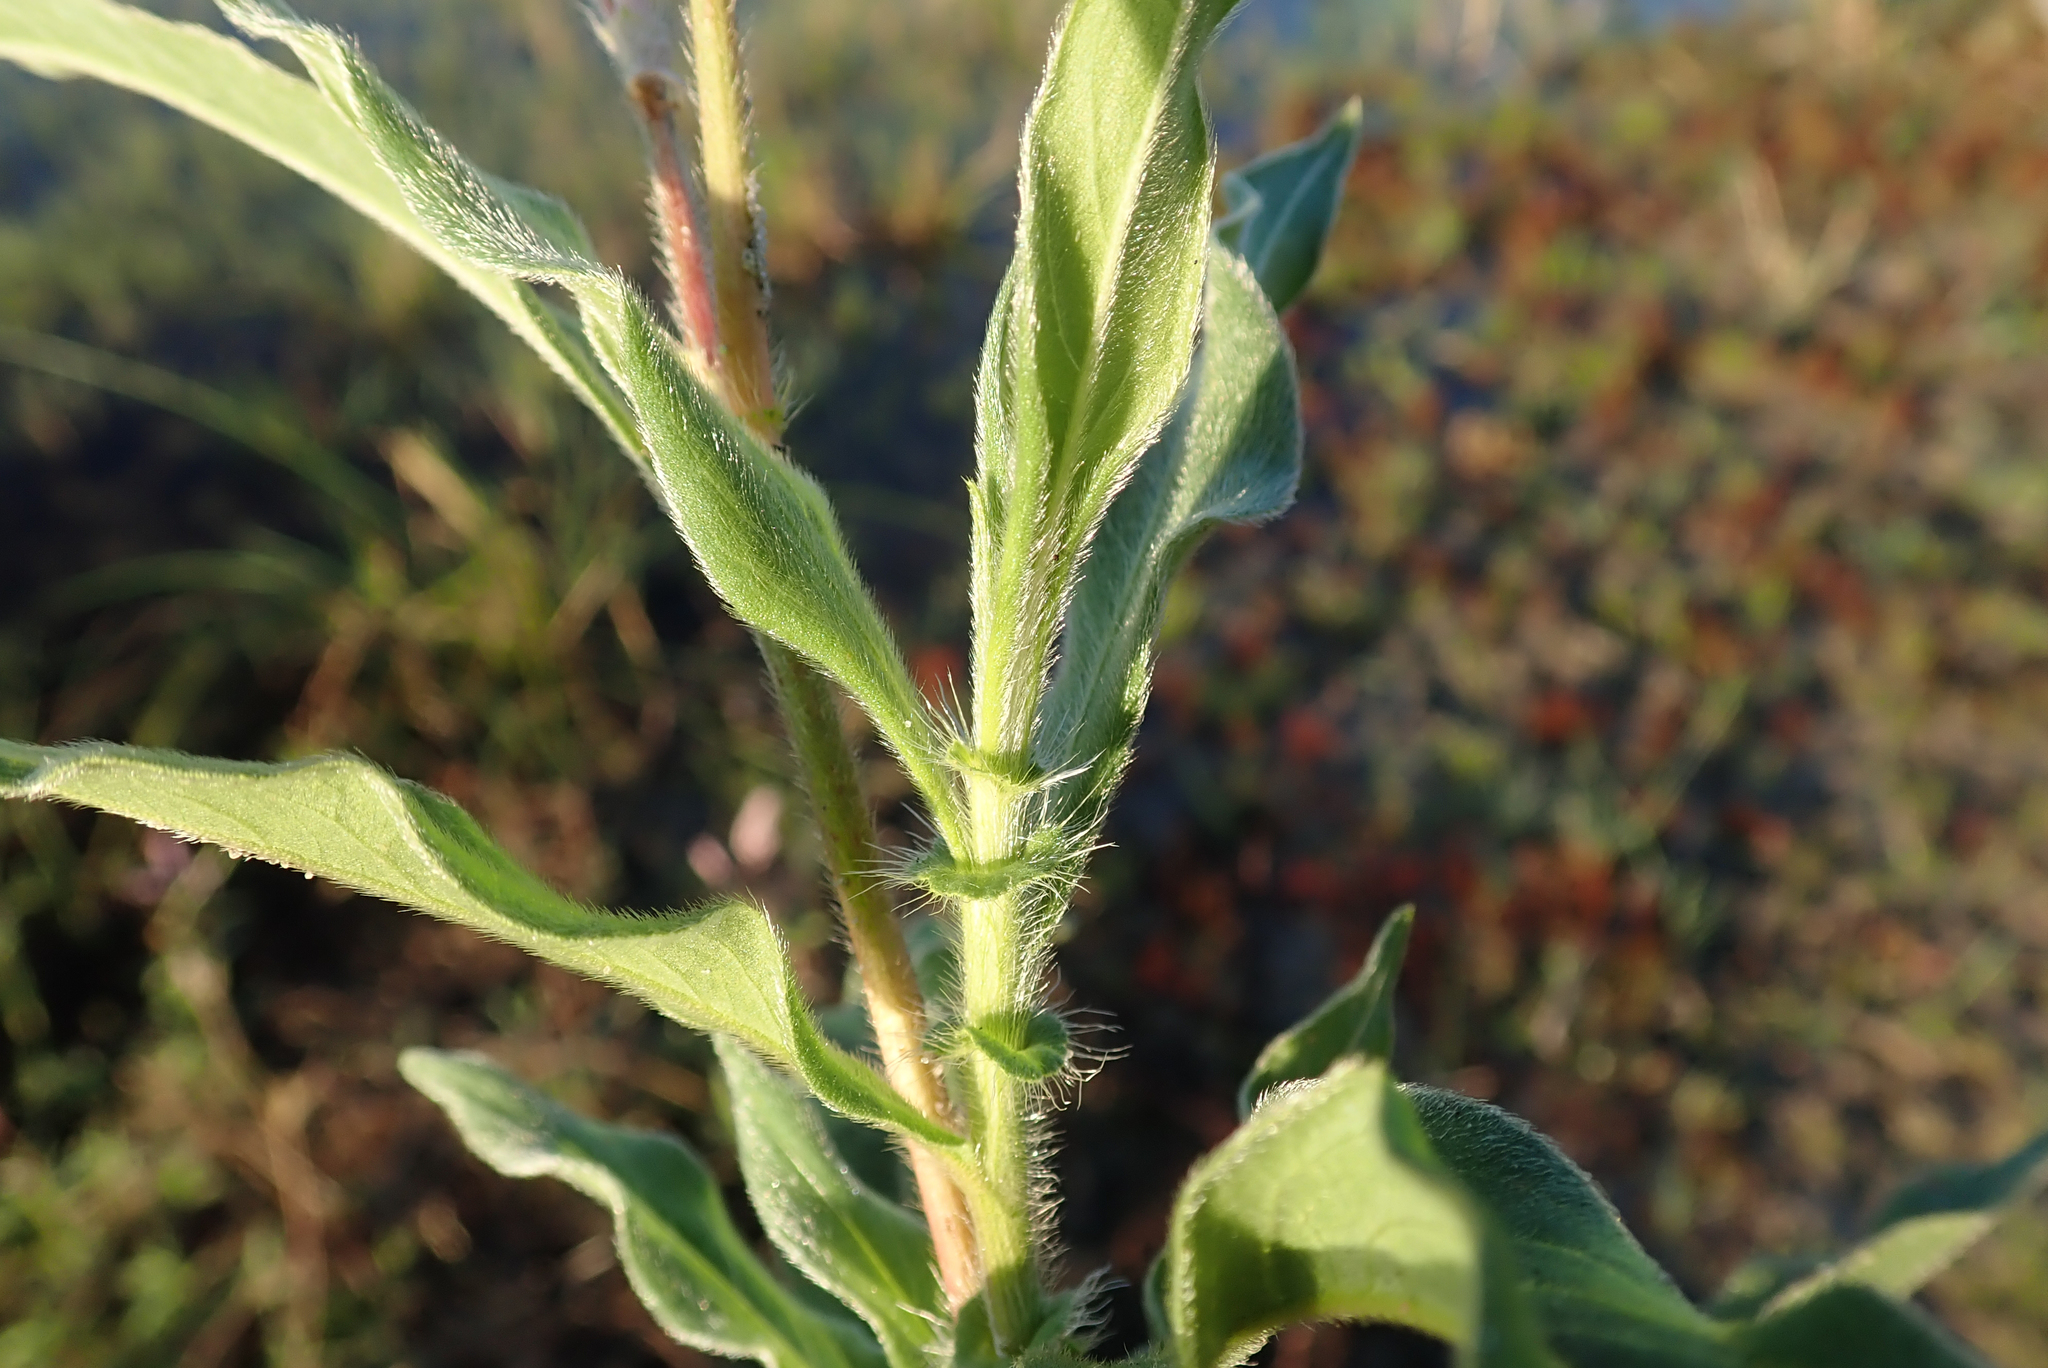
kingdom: Plantae
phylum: Tracheophyta
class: Magnoliopsida
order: Caryophyllales
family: Polygonaceae
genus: Persicaria
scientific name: Persicaria limbata
